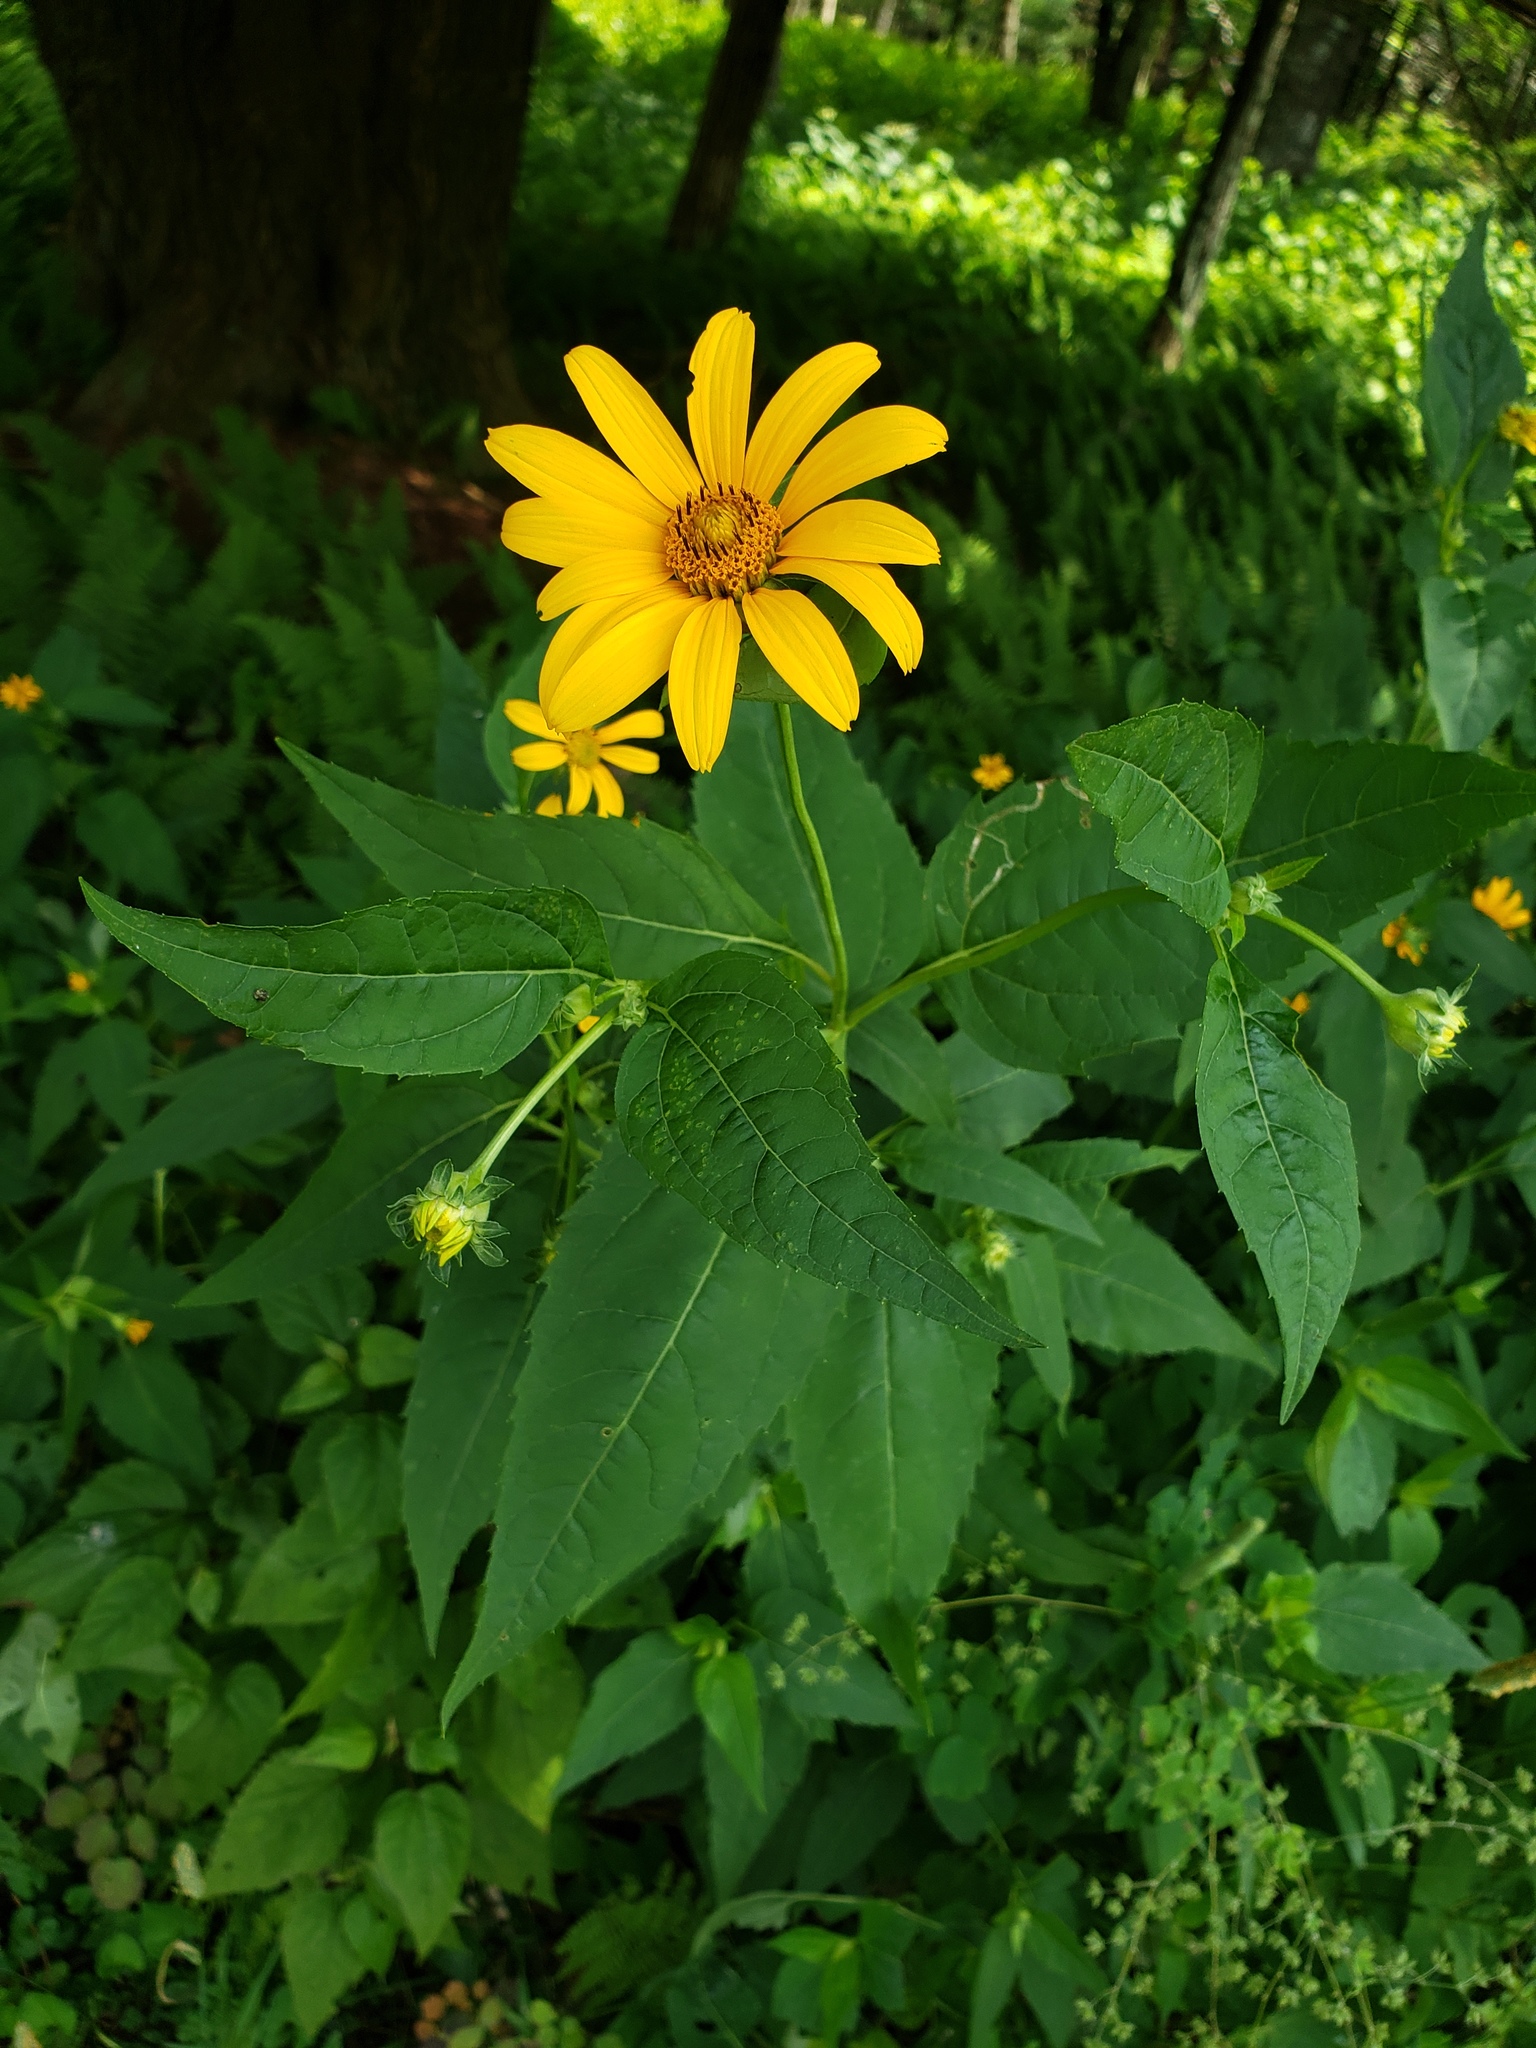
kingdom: Plantae
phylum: Tracheophyta
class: Magnoliopsida
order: Asterales
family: Asteraceae
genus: Heliopsis
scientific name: Heliopsis helianthoides
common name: False sunflower
